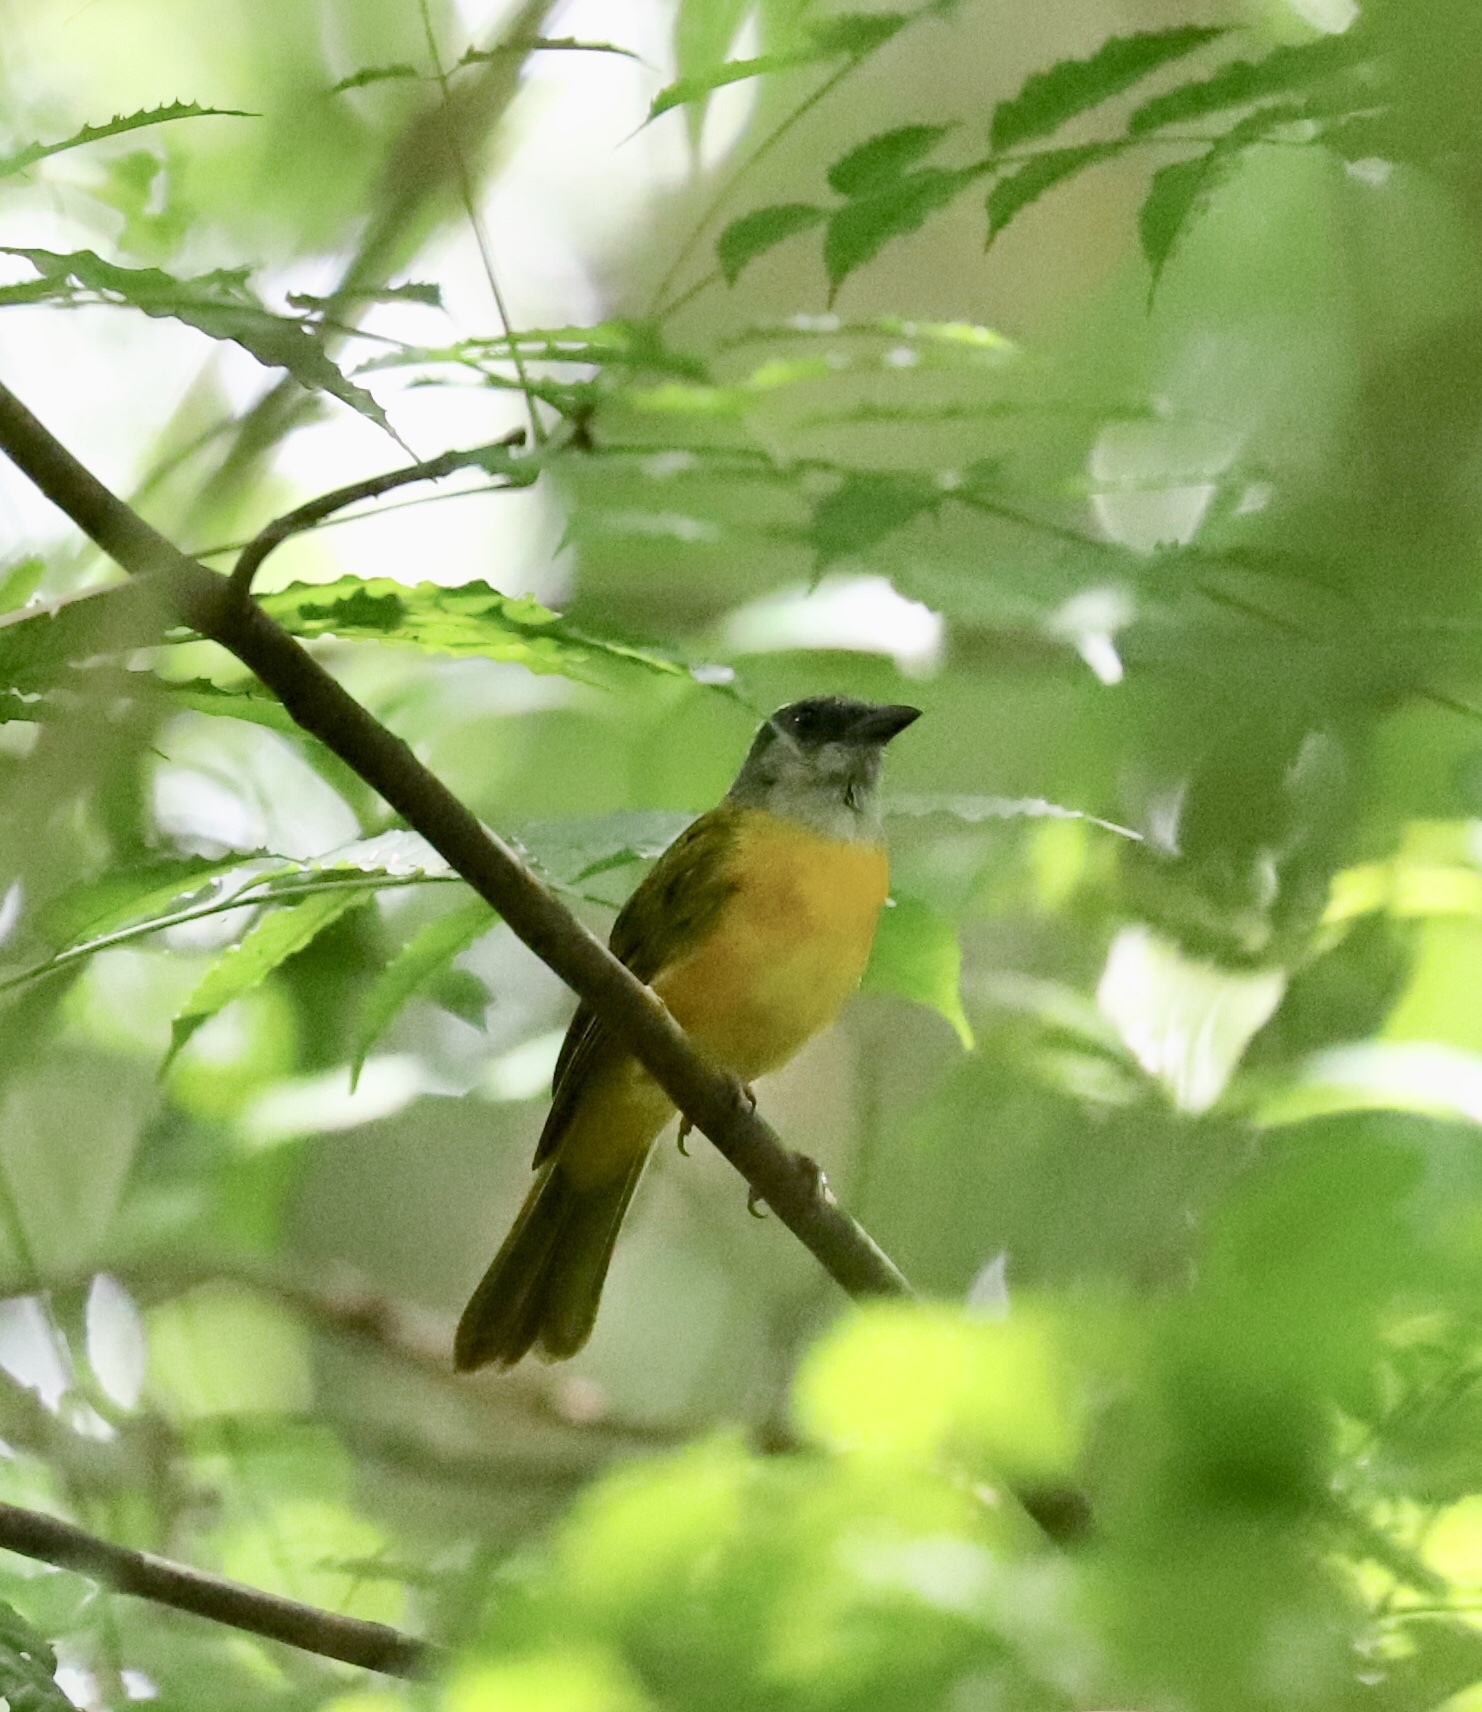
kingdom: Animalia
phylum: Chordata
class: Aves
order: Passeriformes
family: Thraupidae
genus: Eucometis
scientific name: Eucometis penicillata
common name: Grey-headed tanager
